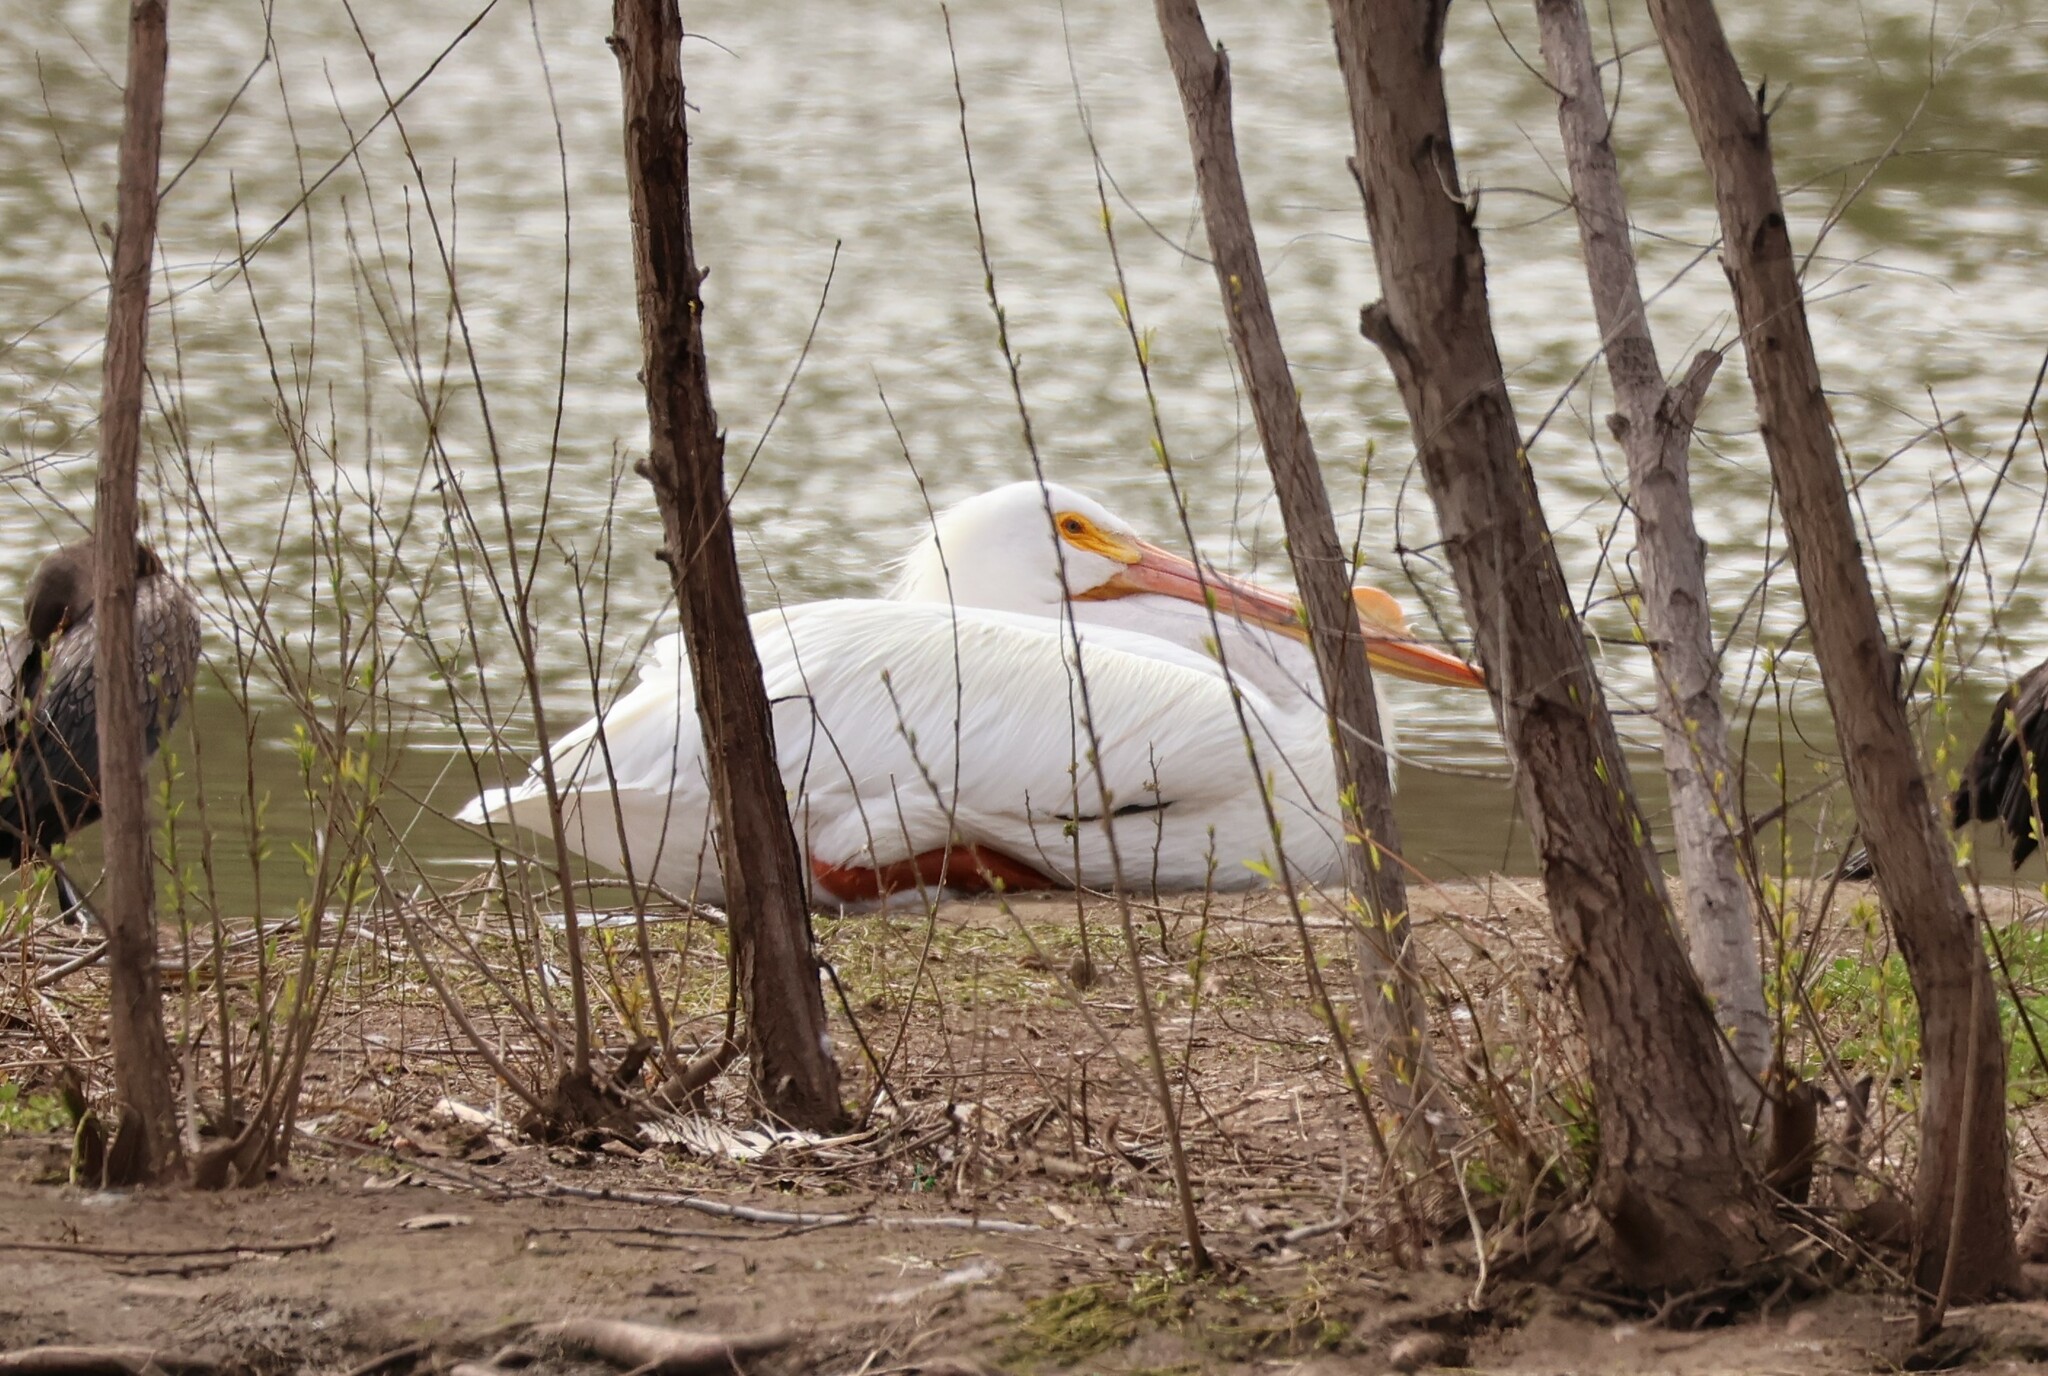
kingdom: Animalia
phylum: Chordata
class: Aves
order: Pelecaniformes
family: Pelecanidae
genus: Pelecanus
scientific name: Pelecanus erythrorhynchos
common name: American white pelican
